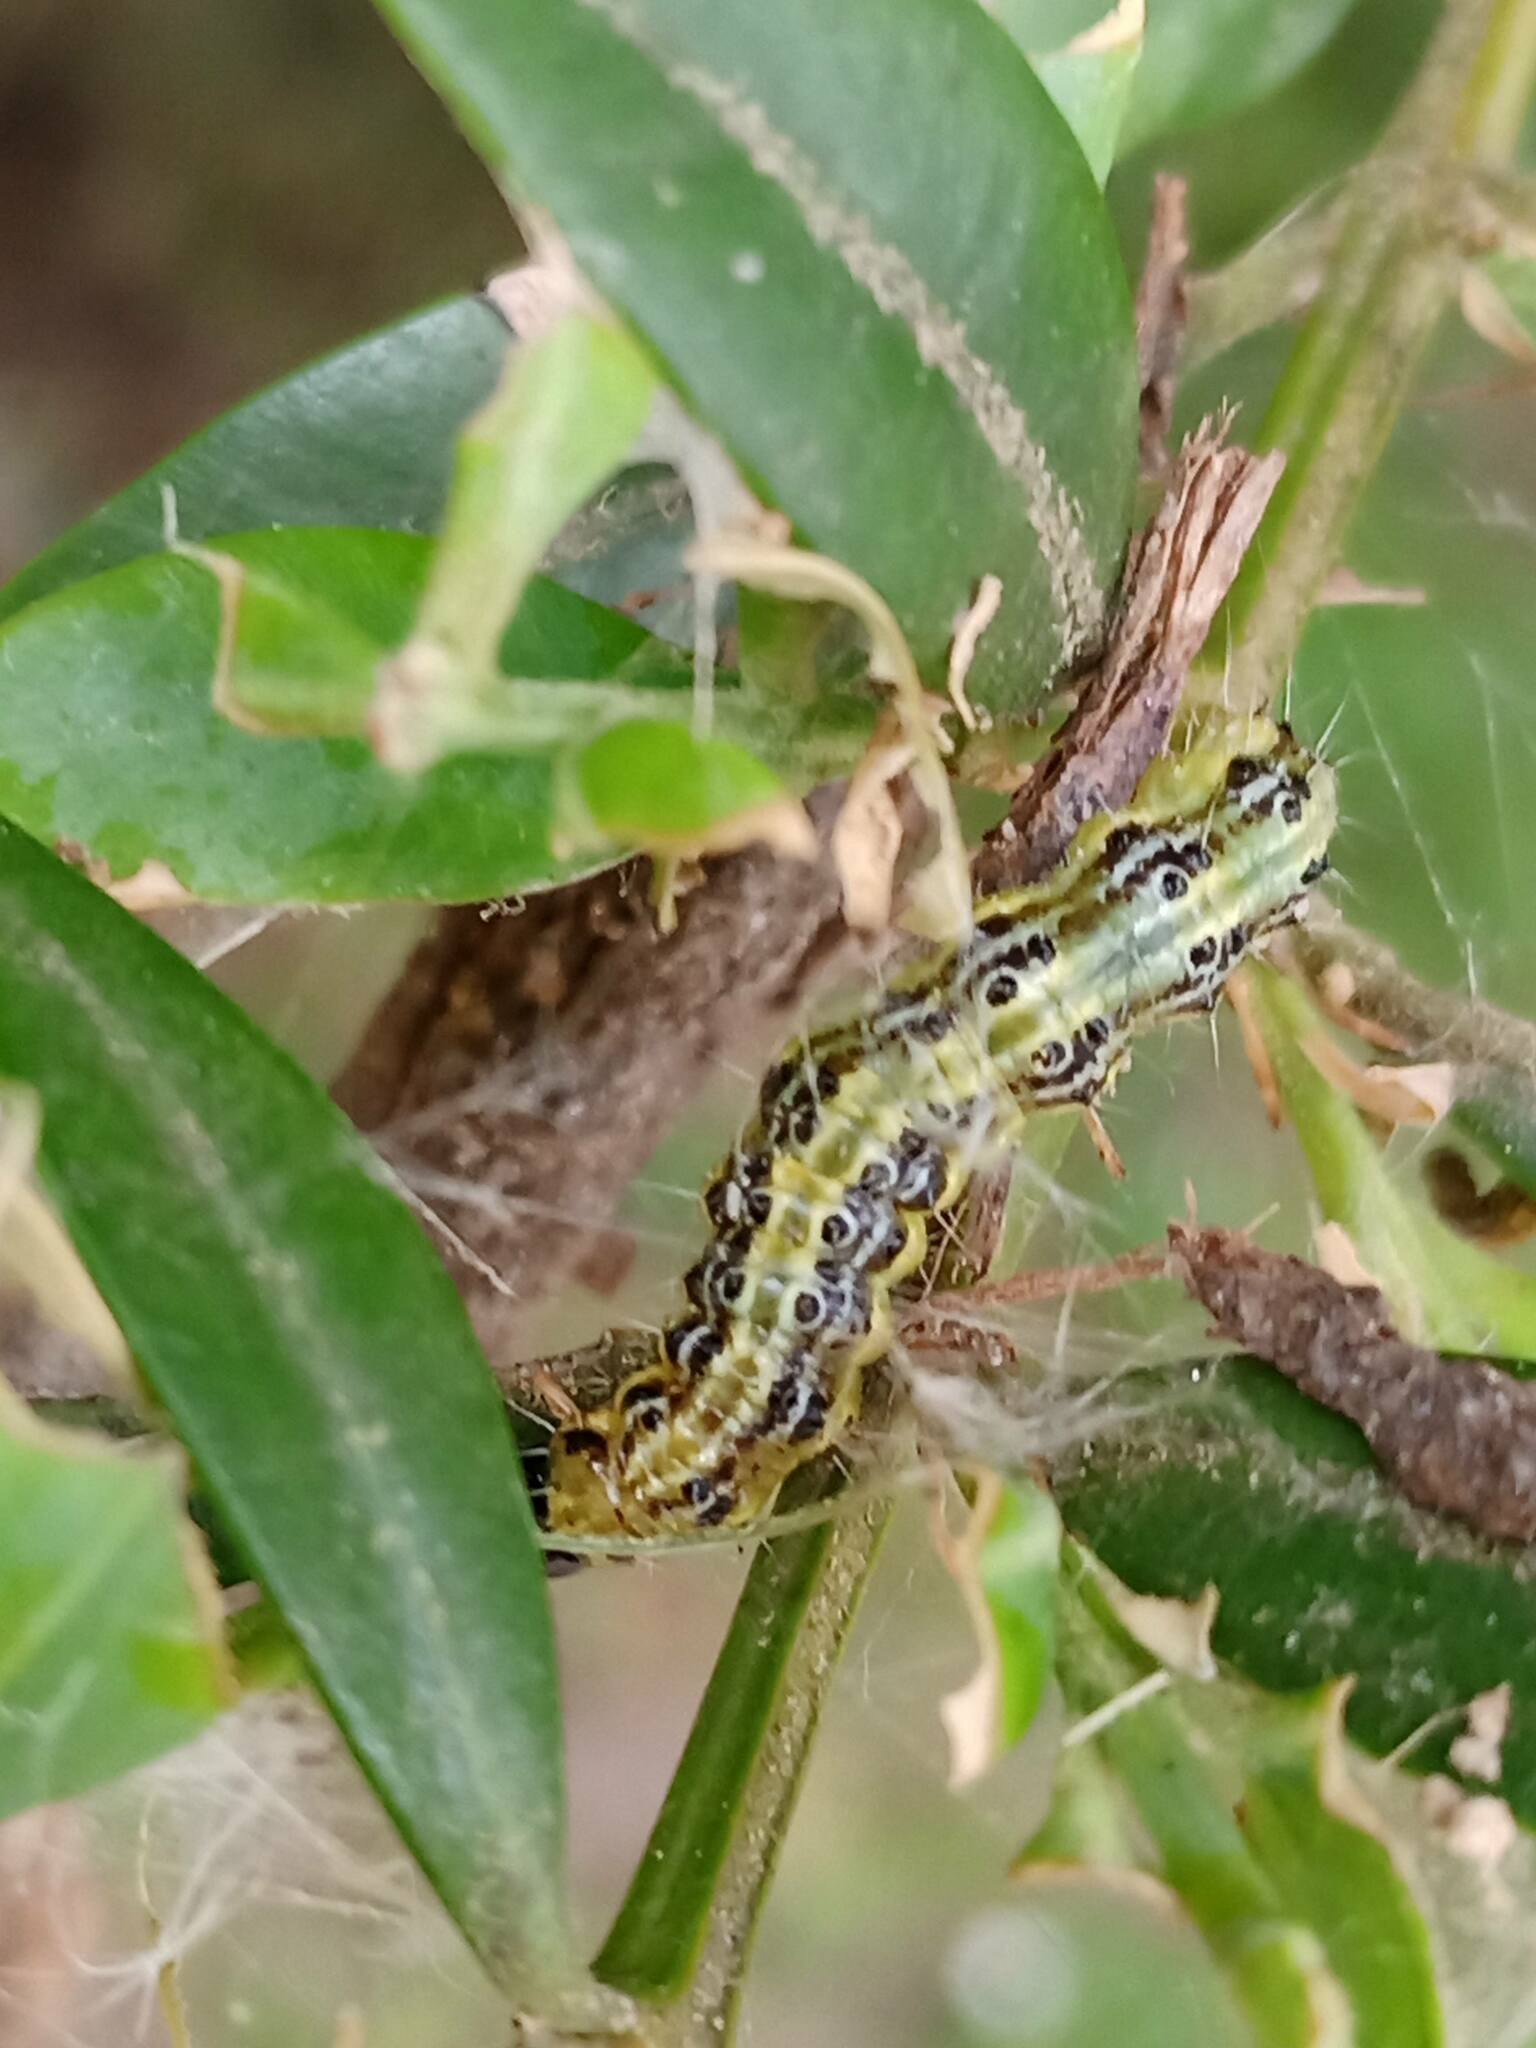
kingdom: Animalia
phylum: Arthropoda
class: Insecta
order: Lepidoptera
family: Crambidae
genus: Cydalima
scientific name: Cydalima perspectalis
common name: Box tree moth
